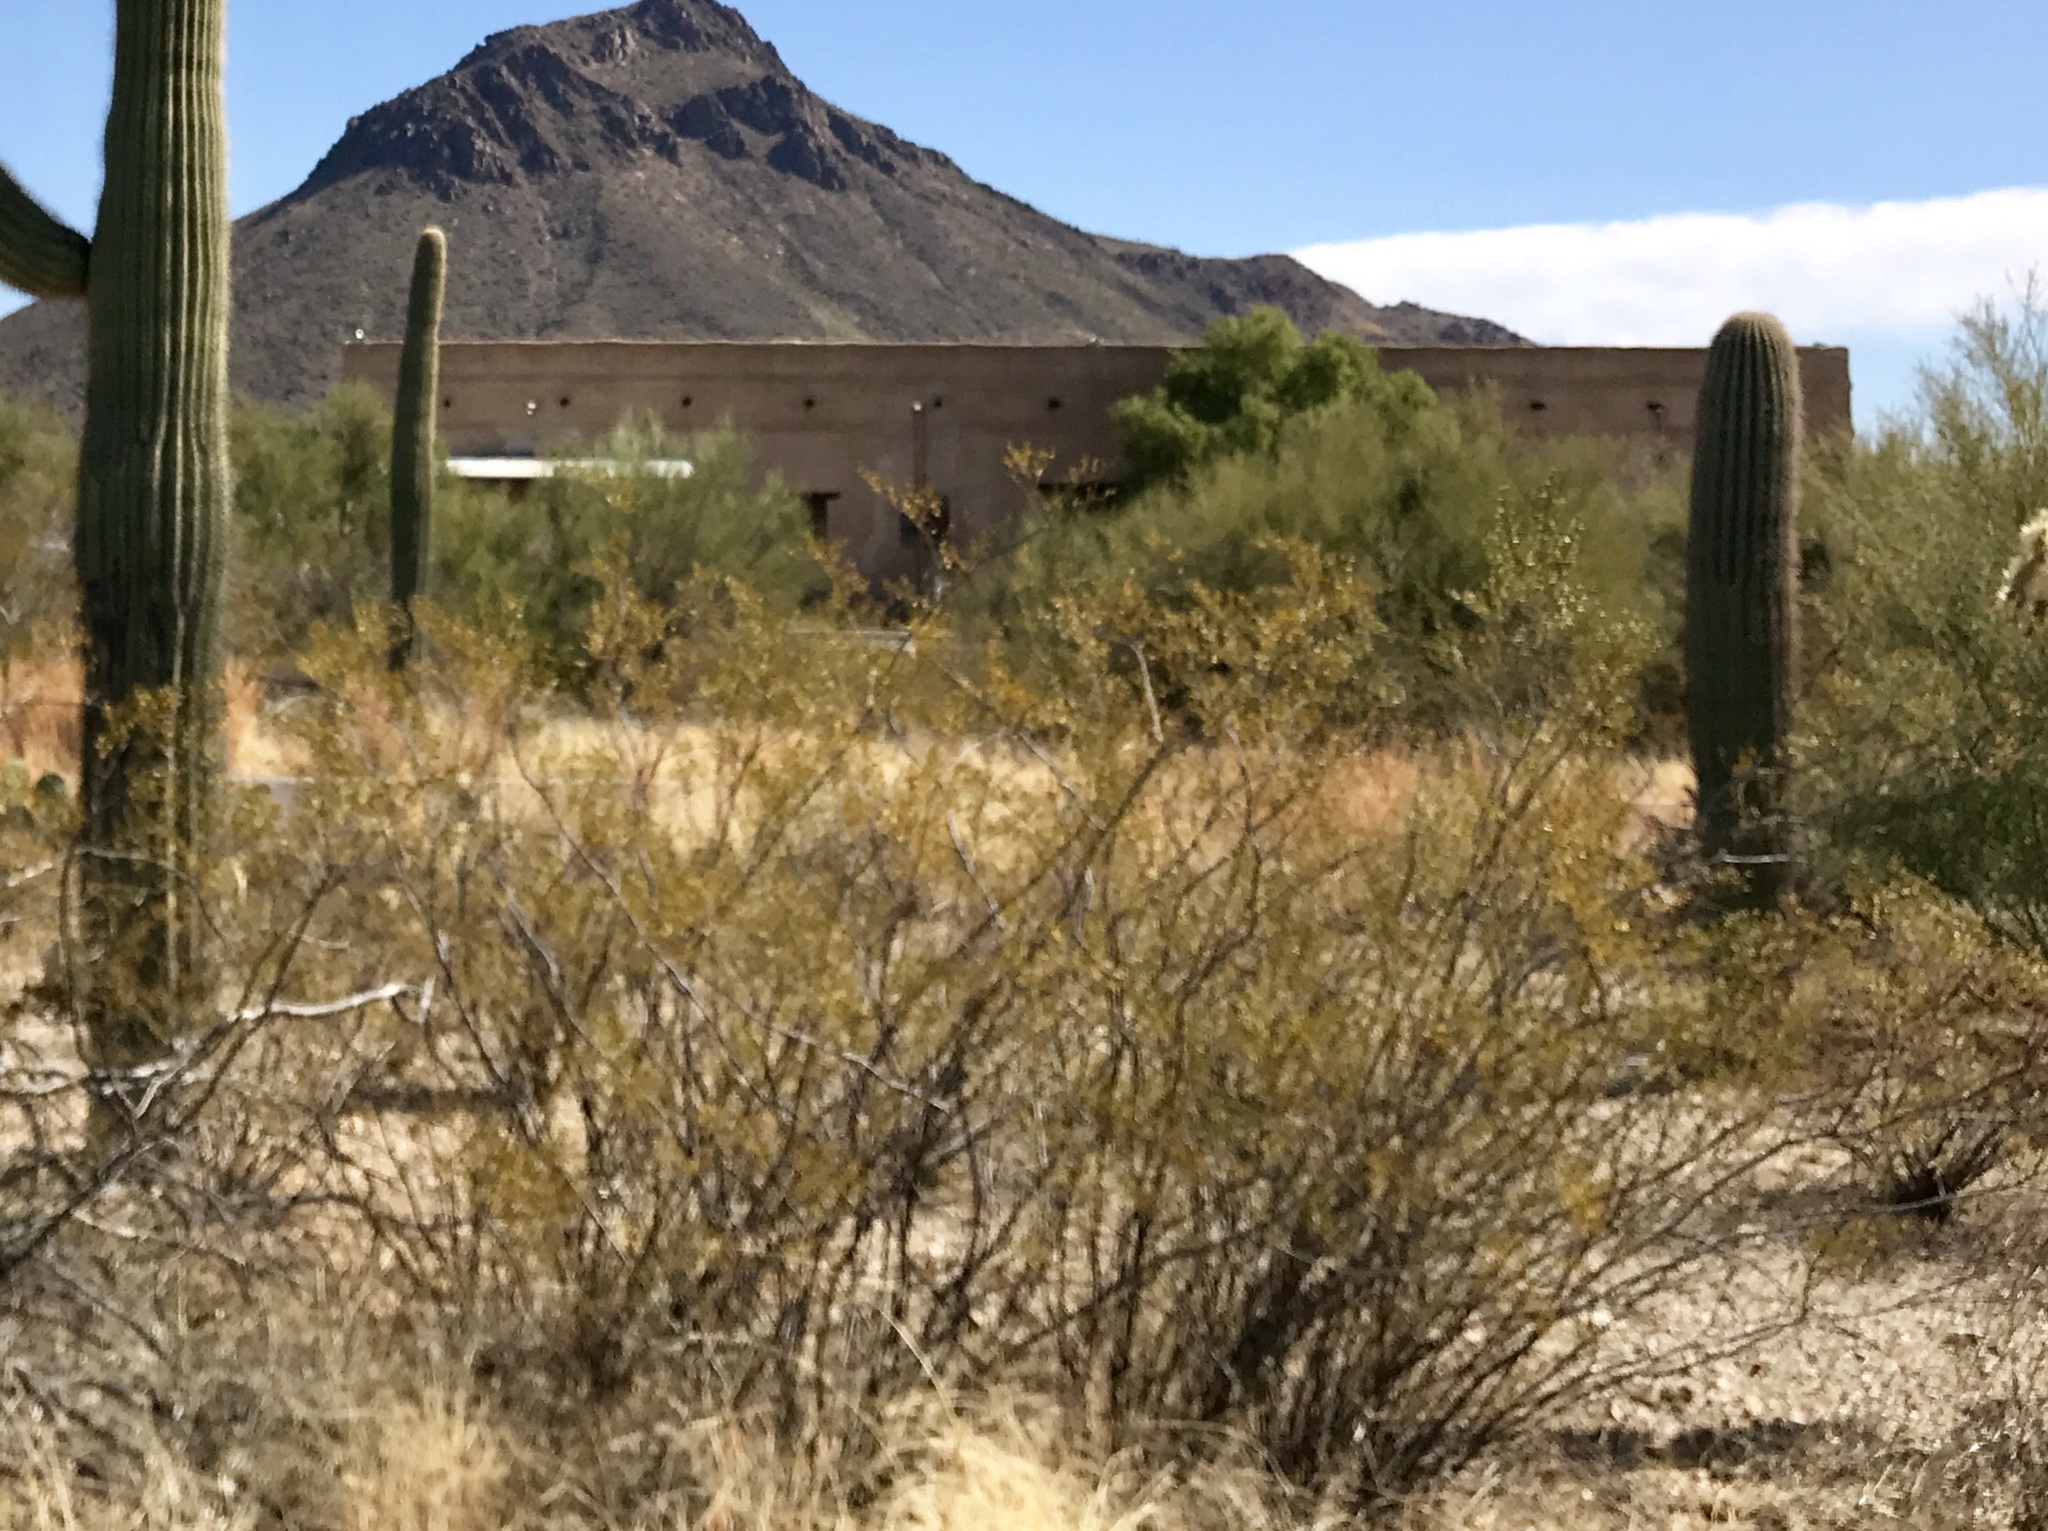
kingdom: Plantae
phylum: Tracheophyta
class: Magnoliopsida
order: Zygophyllales
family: Zygophyllaceae
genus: Larrea
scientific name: Larrea tridentata
